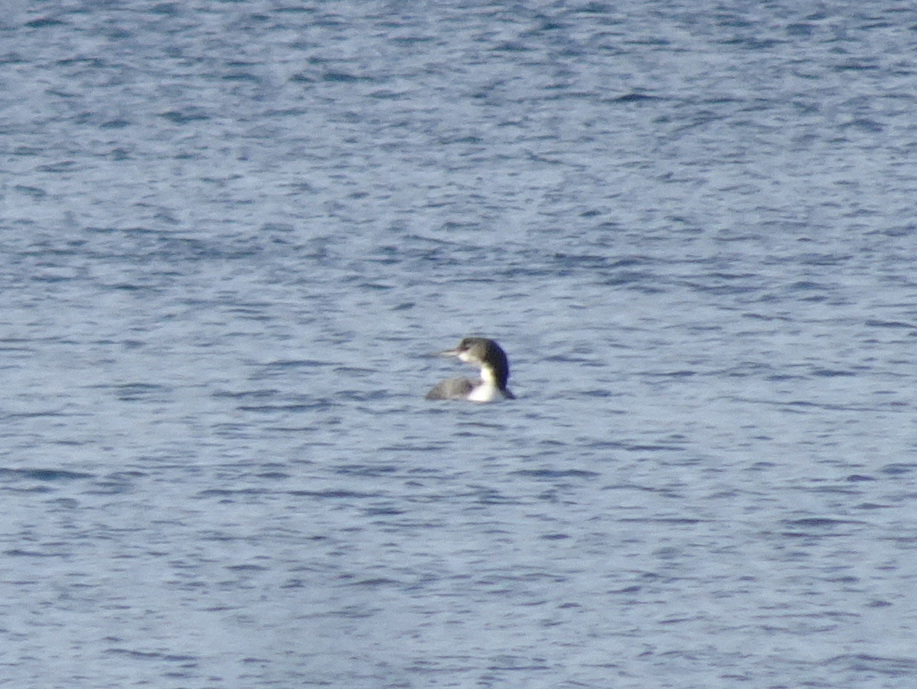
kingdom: Animalia
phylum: Chordata
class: Aves
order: Gaviiformes
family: Gaviidae
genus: Gavia
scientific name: Gavia immer
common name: Common loon
